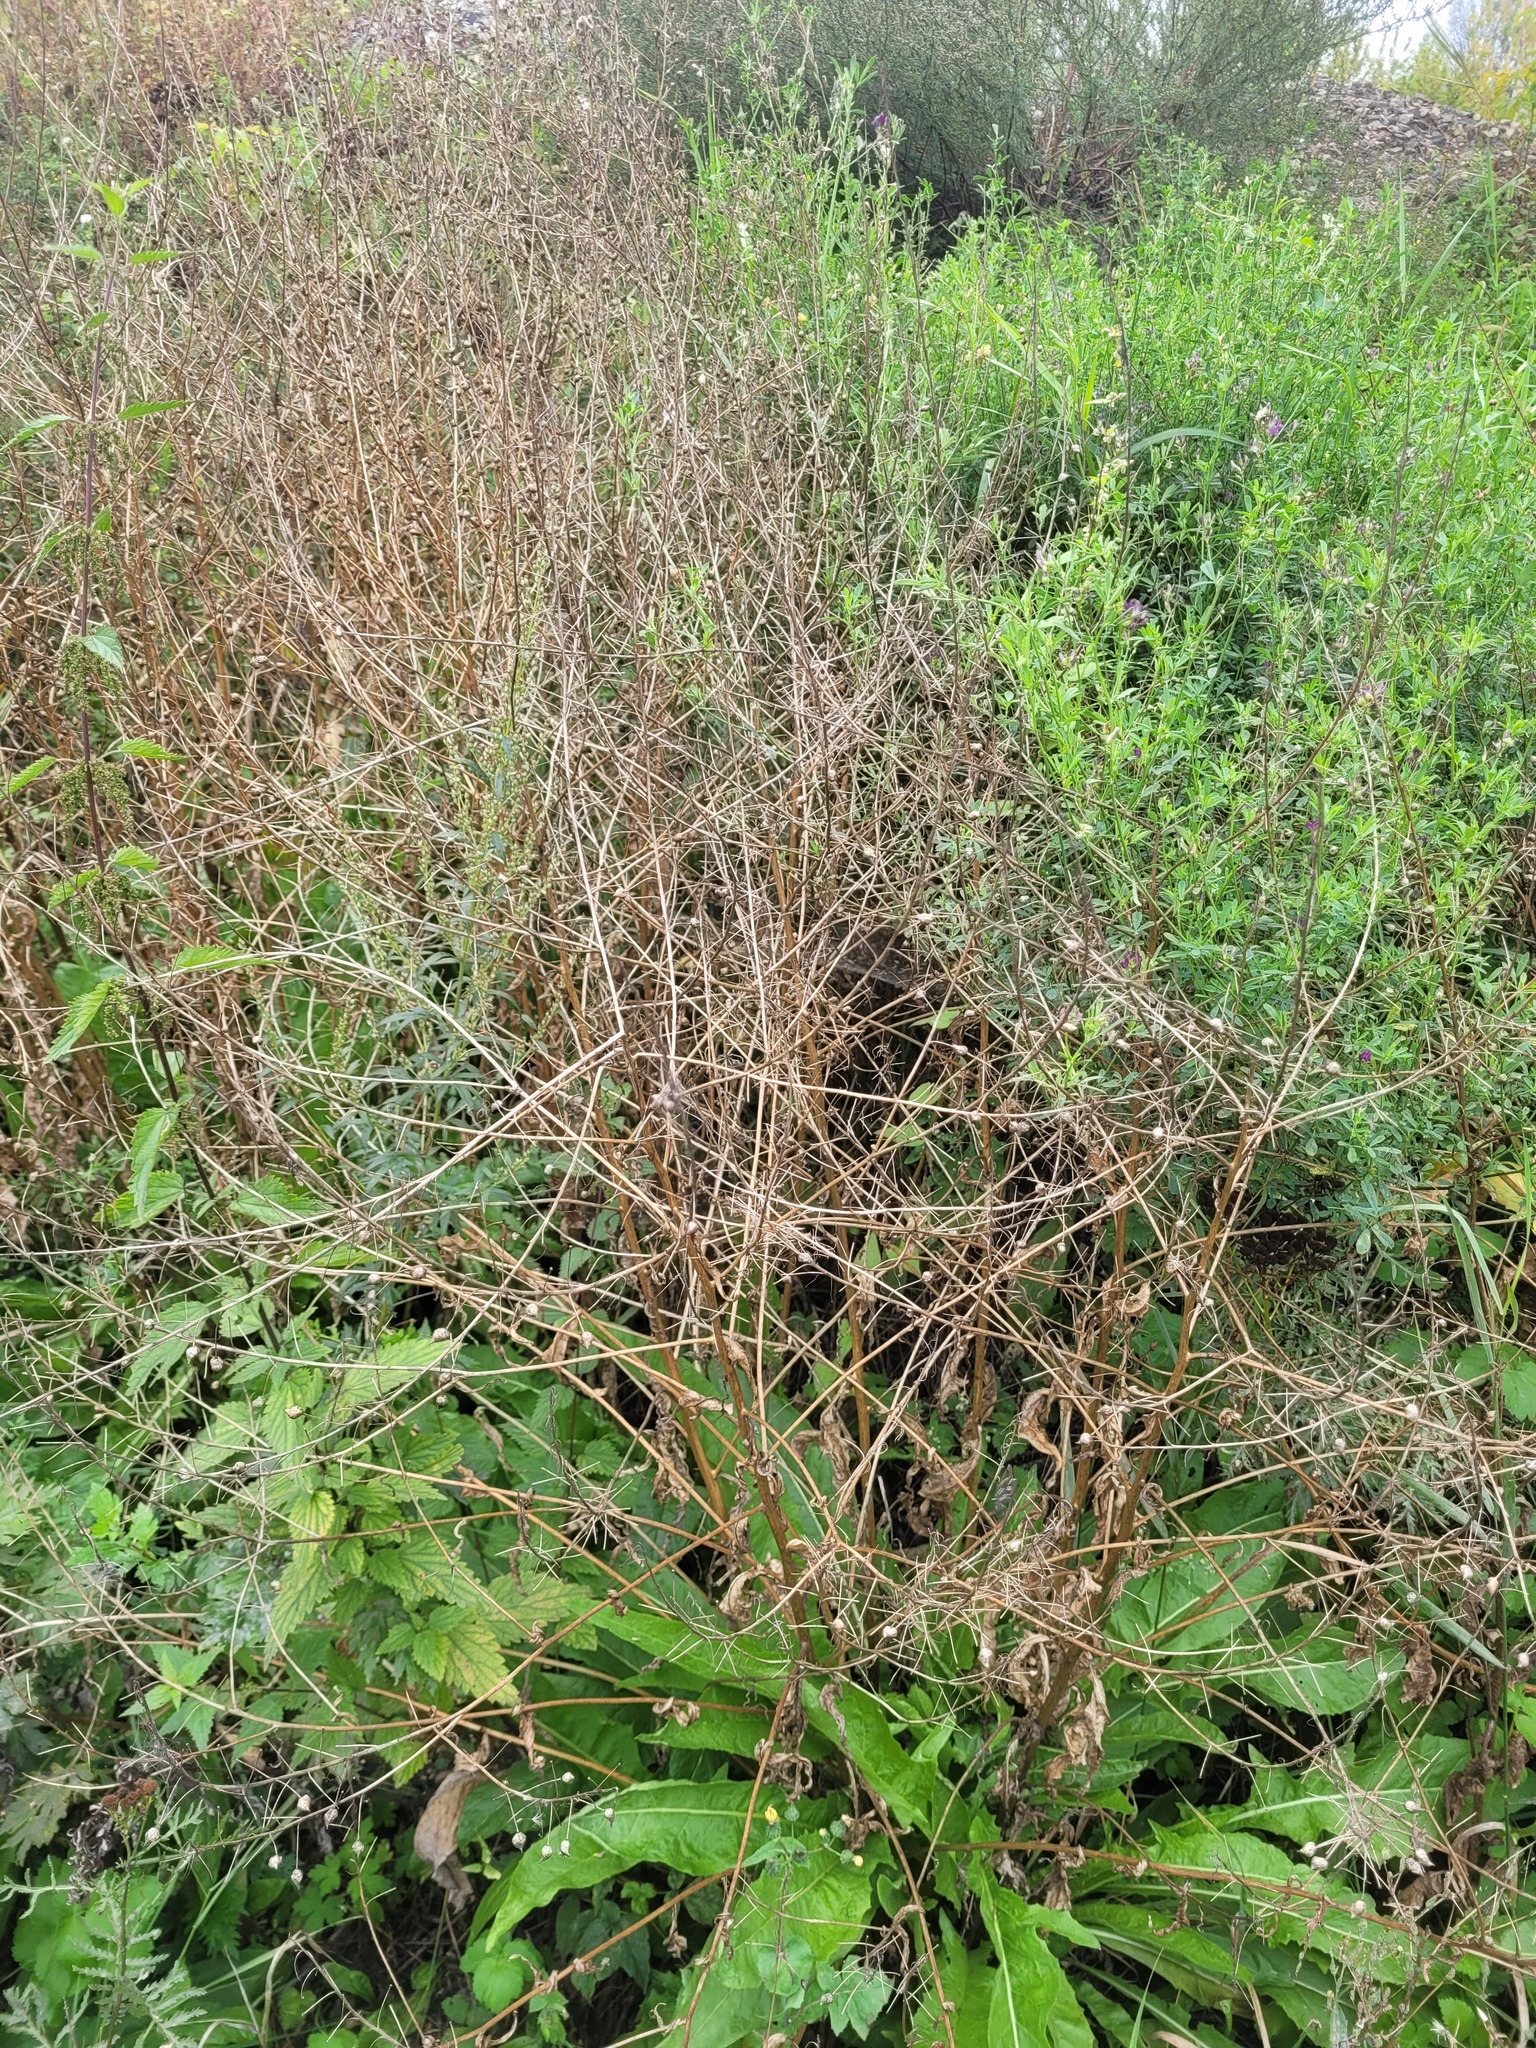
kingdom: Plantae
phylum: Tracheophyta
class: Magnoliopsida
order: Brassicales
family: Brassicaceae
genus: Bunias
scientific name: Bunias orientalis
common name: Warty-cabbage
